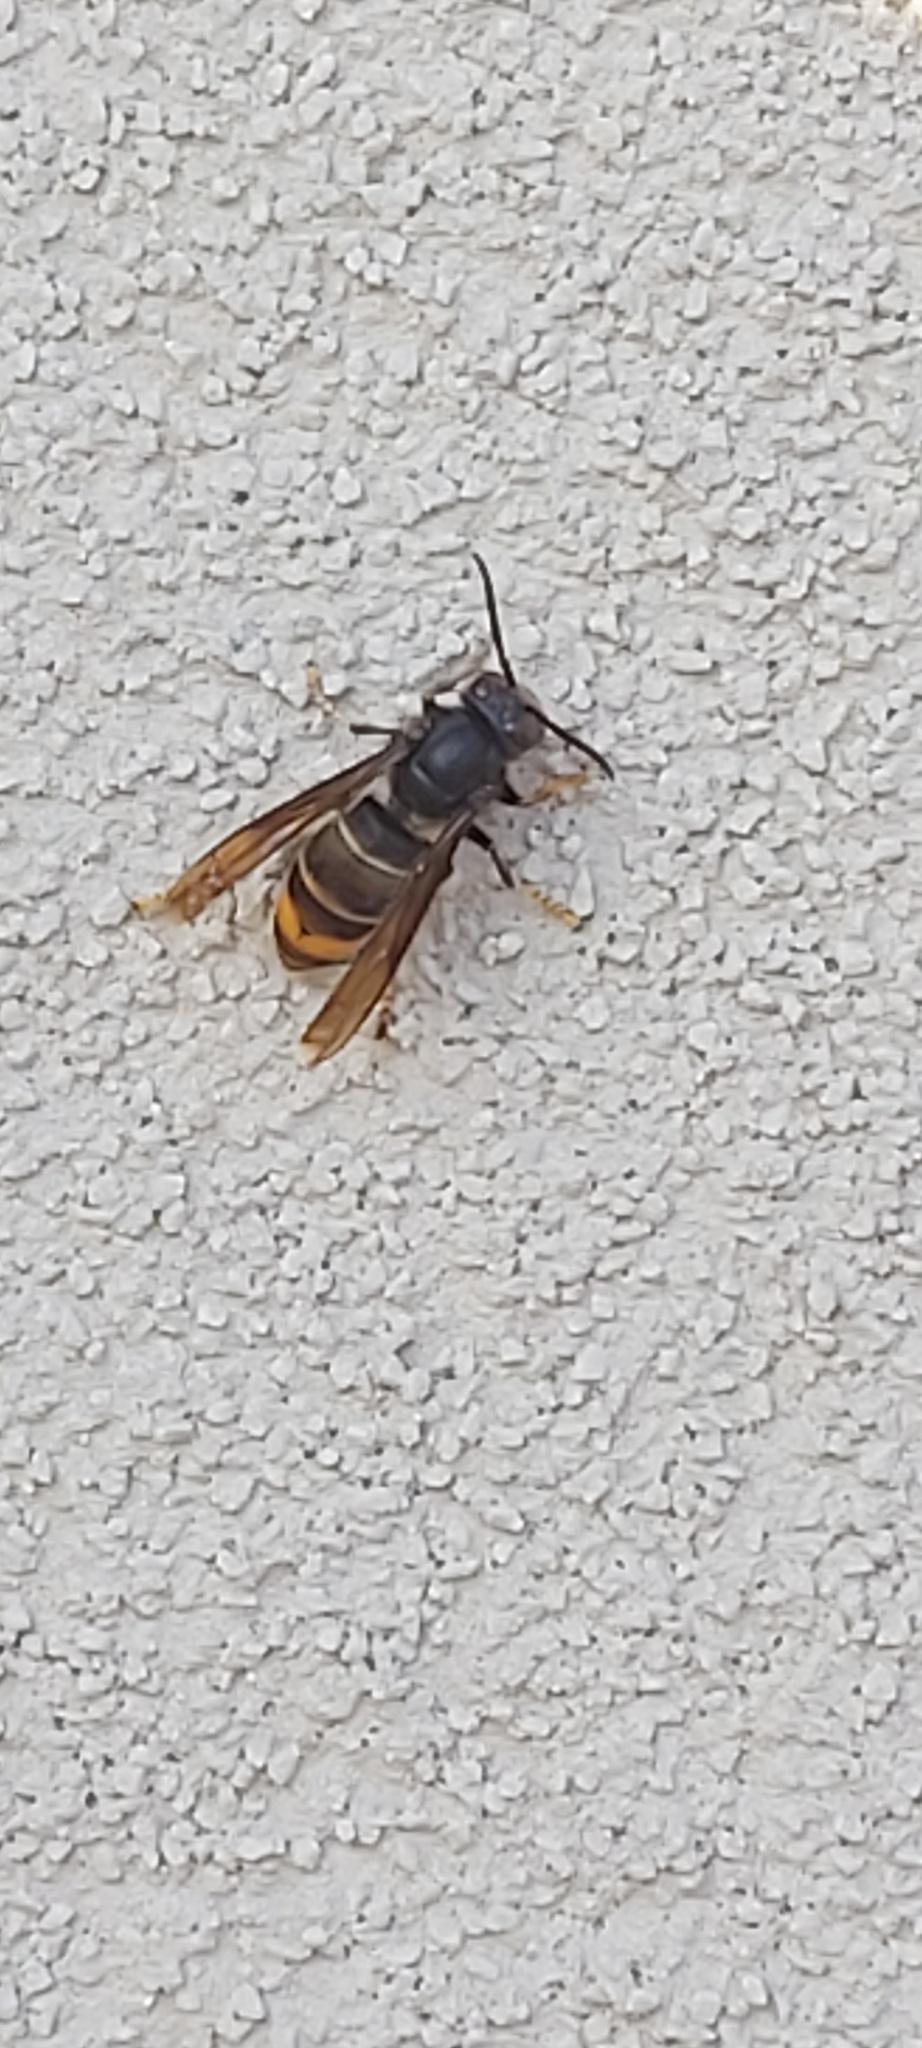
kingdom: Animalia
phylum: Arthropoda
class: Insecta
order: Hymenoptera
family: Vespidae
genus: Vespa
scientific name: Vespa velutina
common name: Asian hornet
